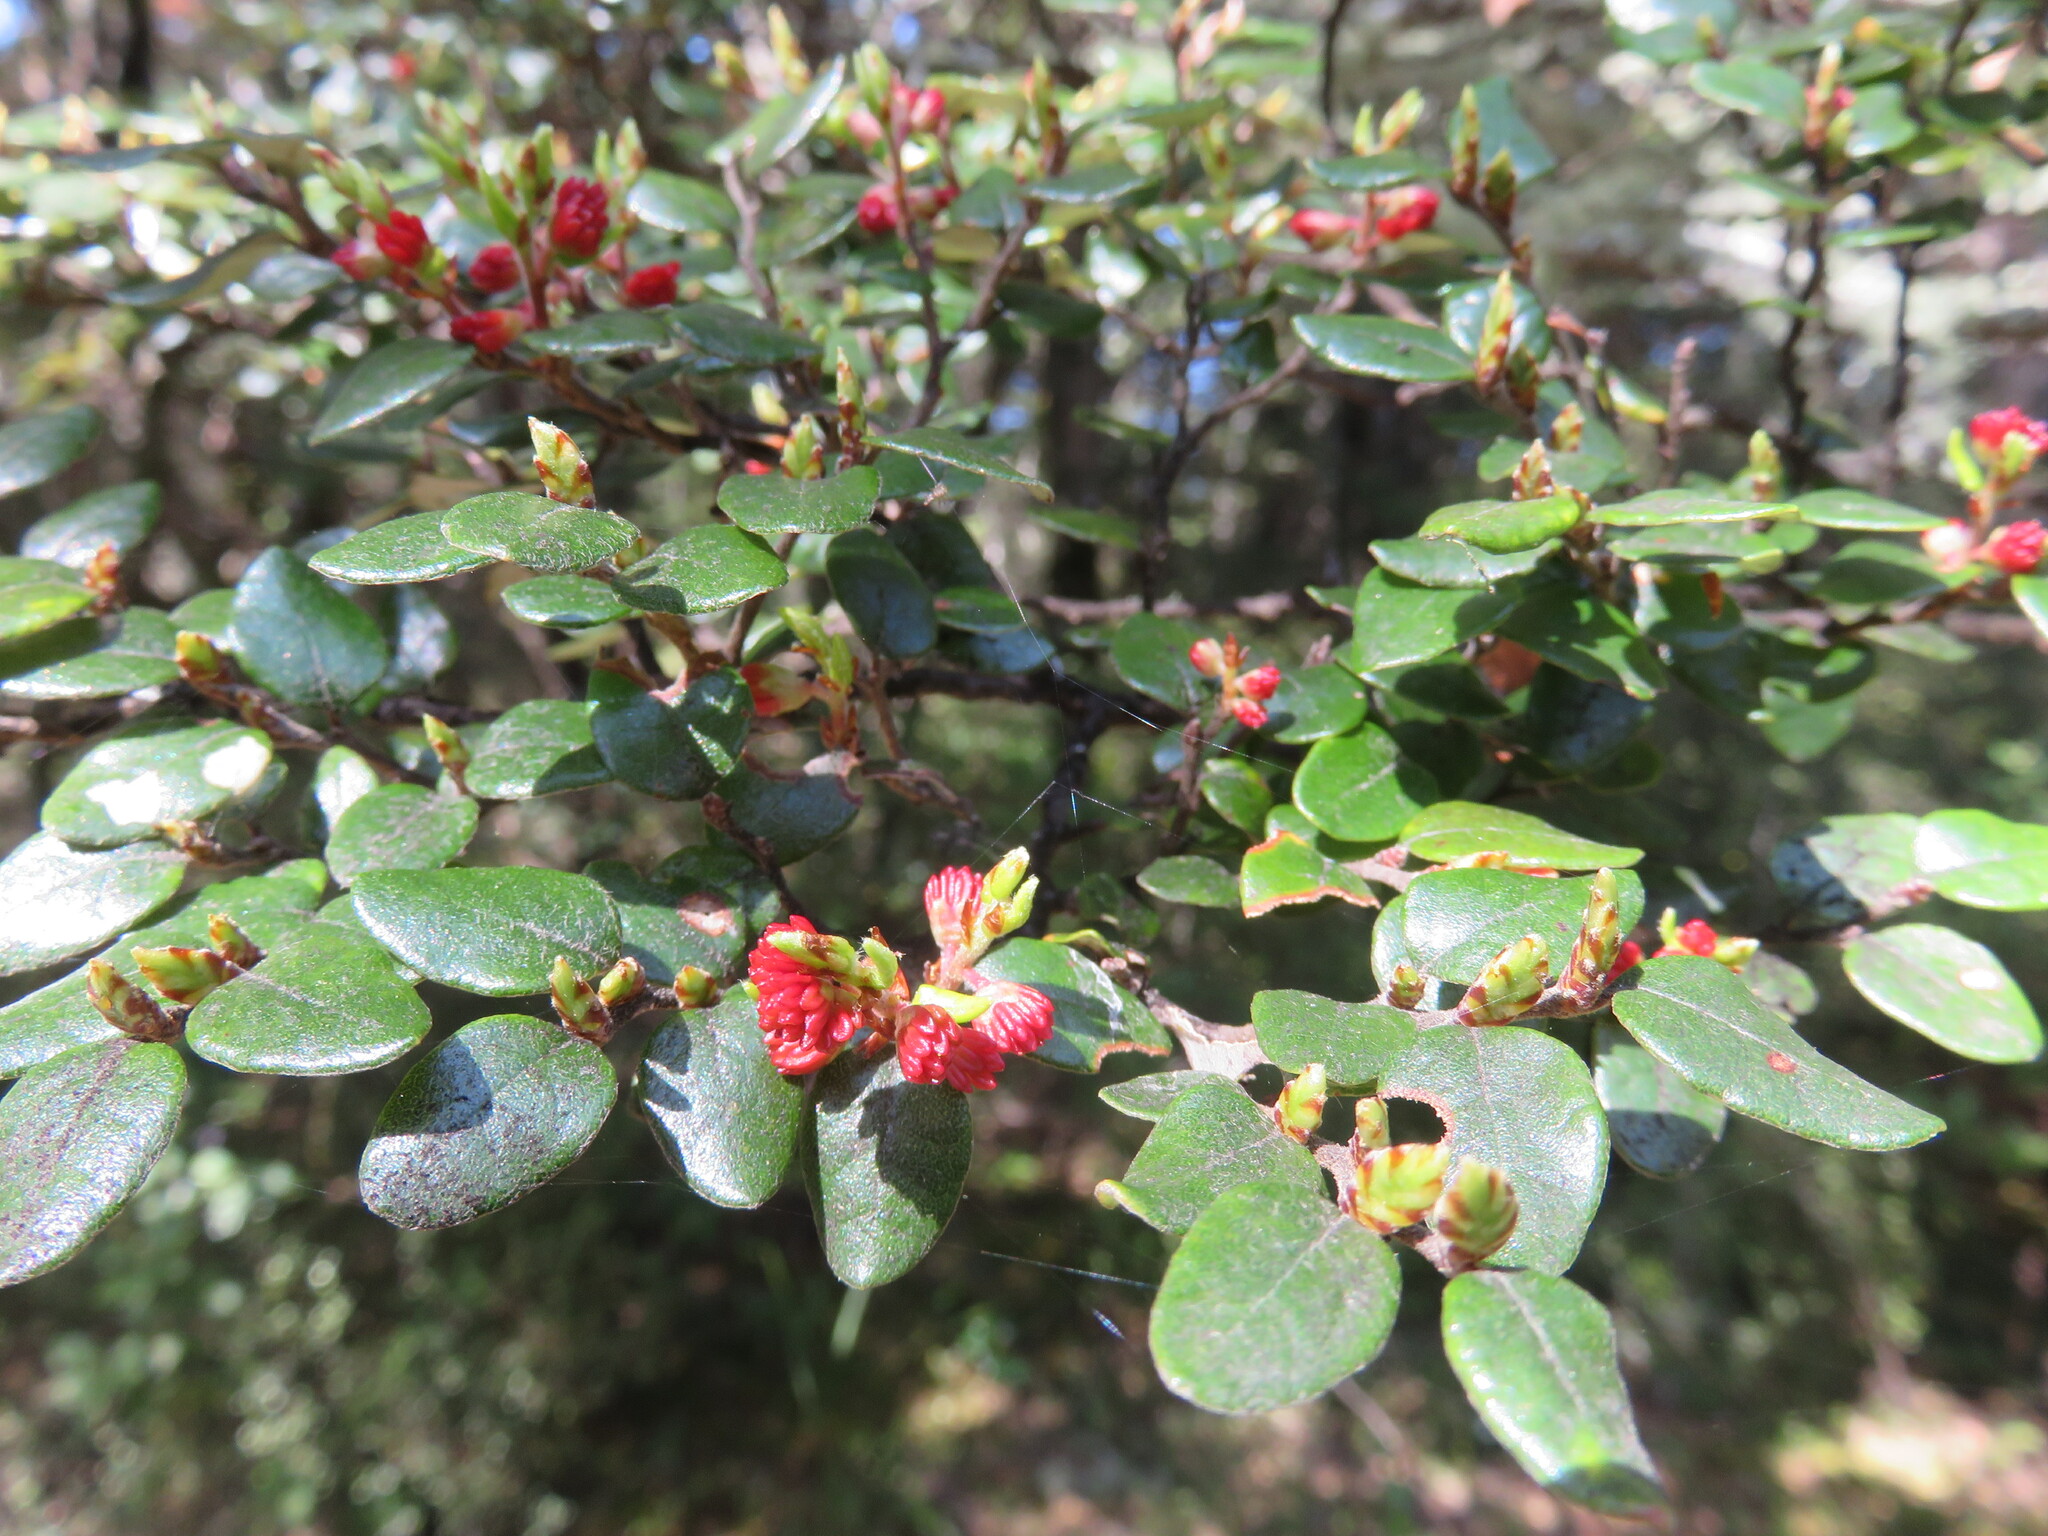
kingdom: Plantae
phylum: Tracheophyta
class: Magnoliopsida
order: Fagales
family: Nothofagaceae
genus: Nothofagus
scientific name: Nothofagus cliffortioides
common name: Mountain beech
